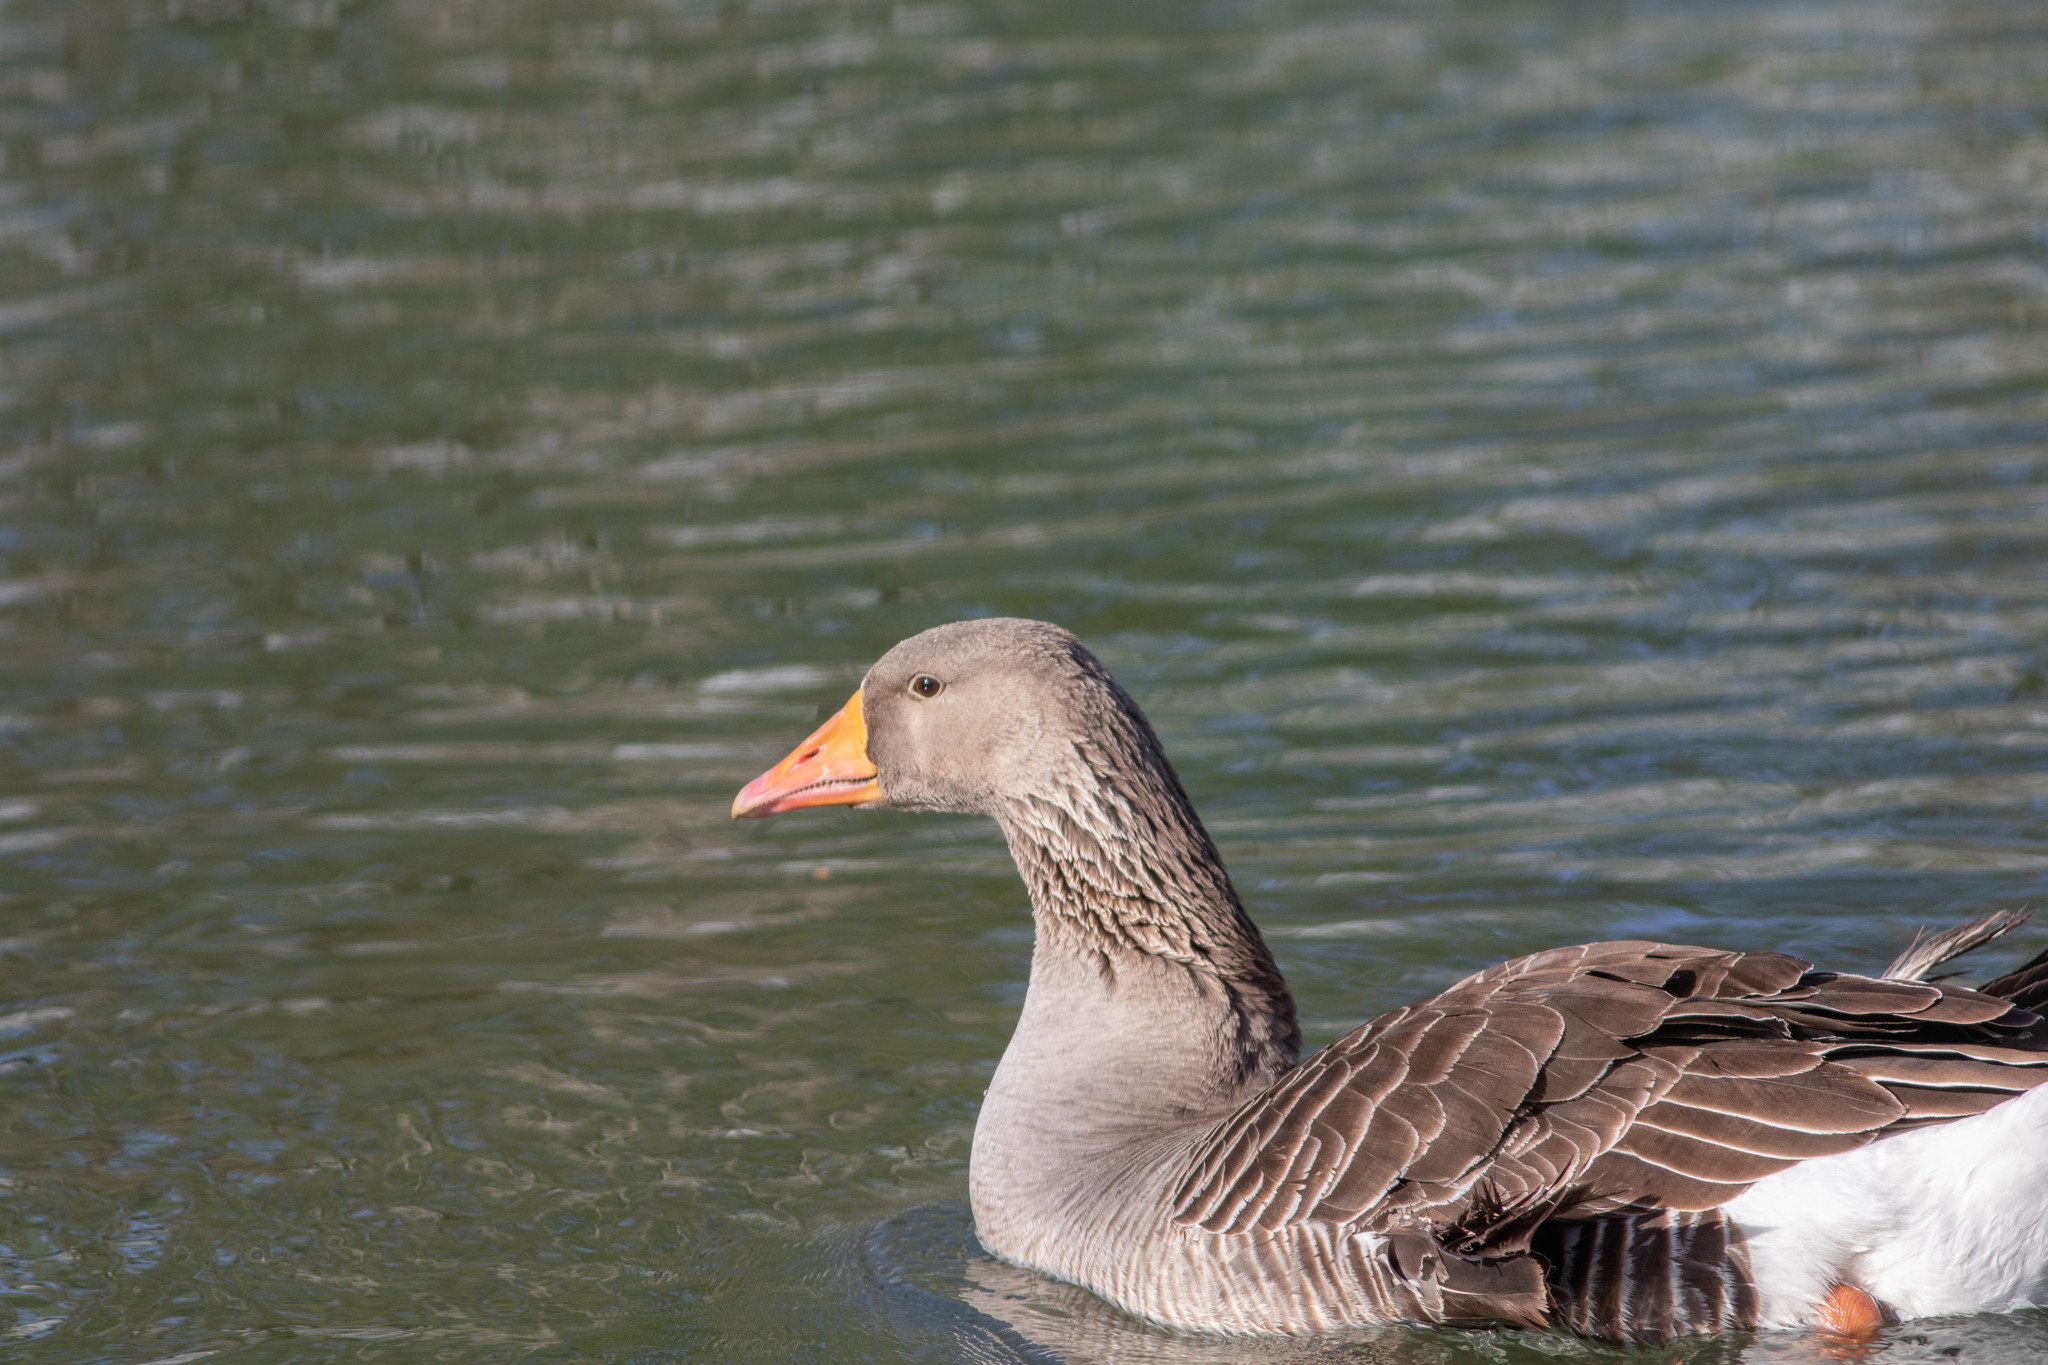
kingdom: Animalia
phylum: Chordata
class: Aves
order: Anseriformes
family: Anatidae
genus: Anser
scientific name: Anser anser
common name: Greylag goose
